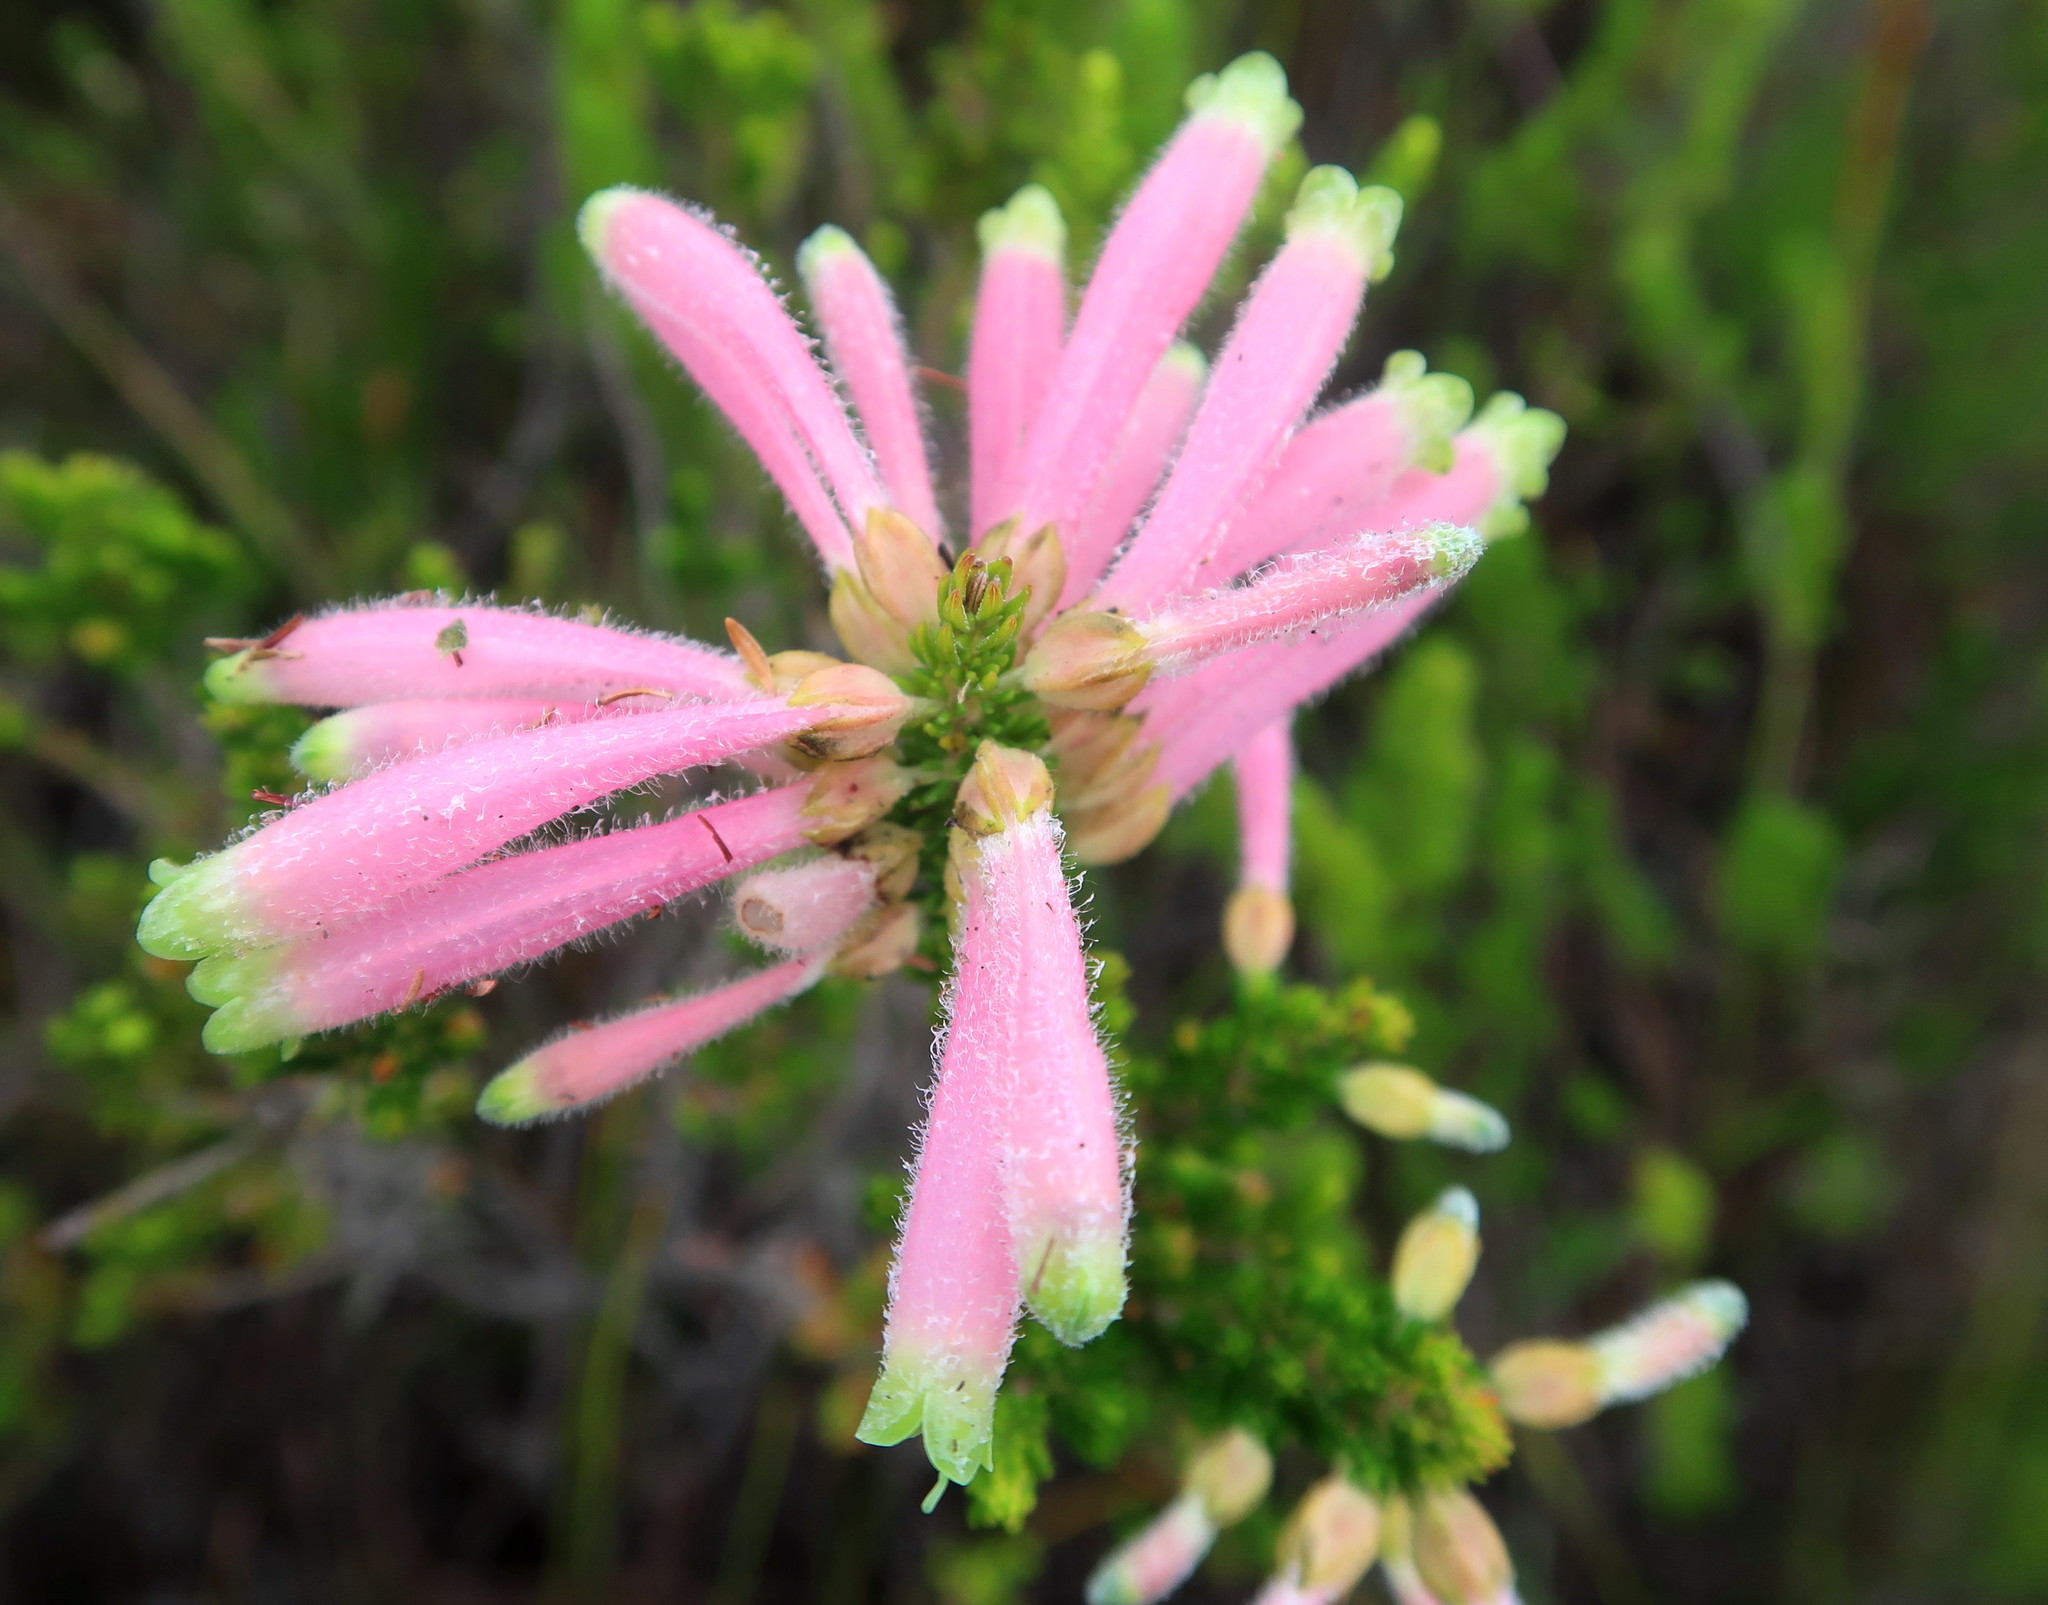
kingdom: Plantae
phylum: Tracheophyta
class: Magnoliopsida
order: Ericales
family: Ericaceae
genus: Erica
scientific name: Erica densifolia
